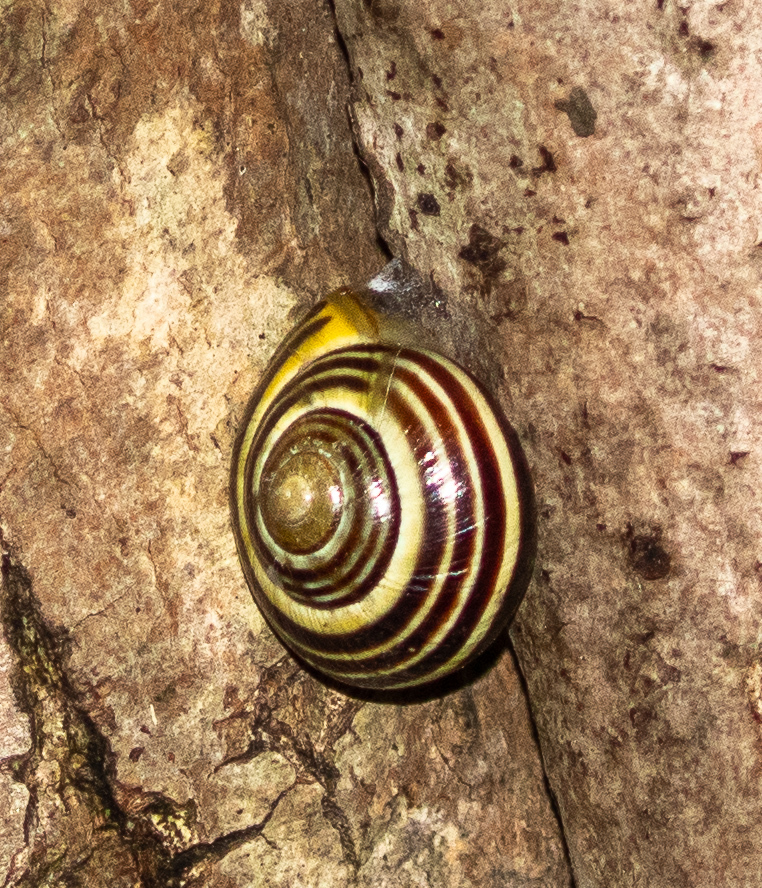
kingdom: Animalia
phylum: Mollusca
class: Gastropoda
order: Stylommatophora
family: Helicidae
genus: Cepaea
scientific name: Cepaea nemoralis
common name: Grovesnail
